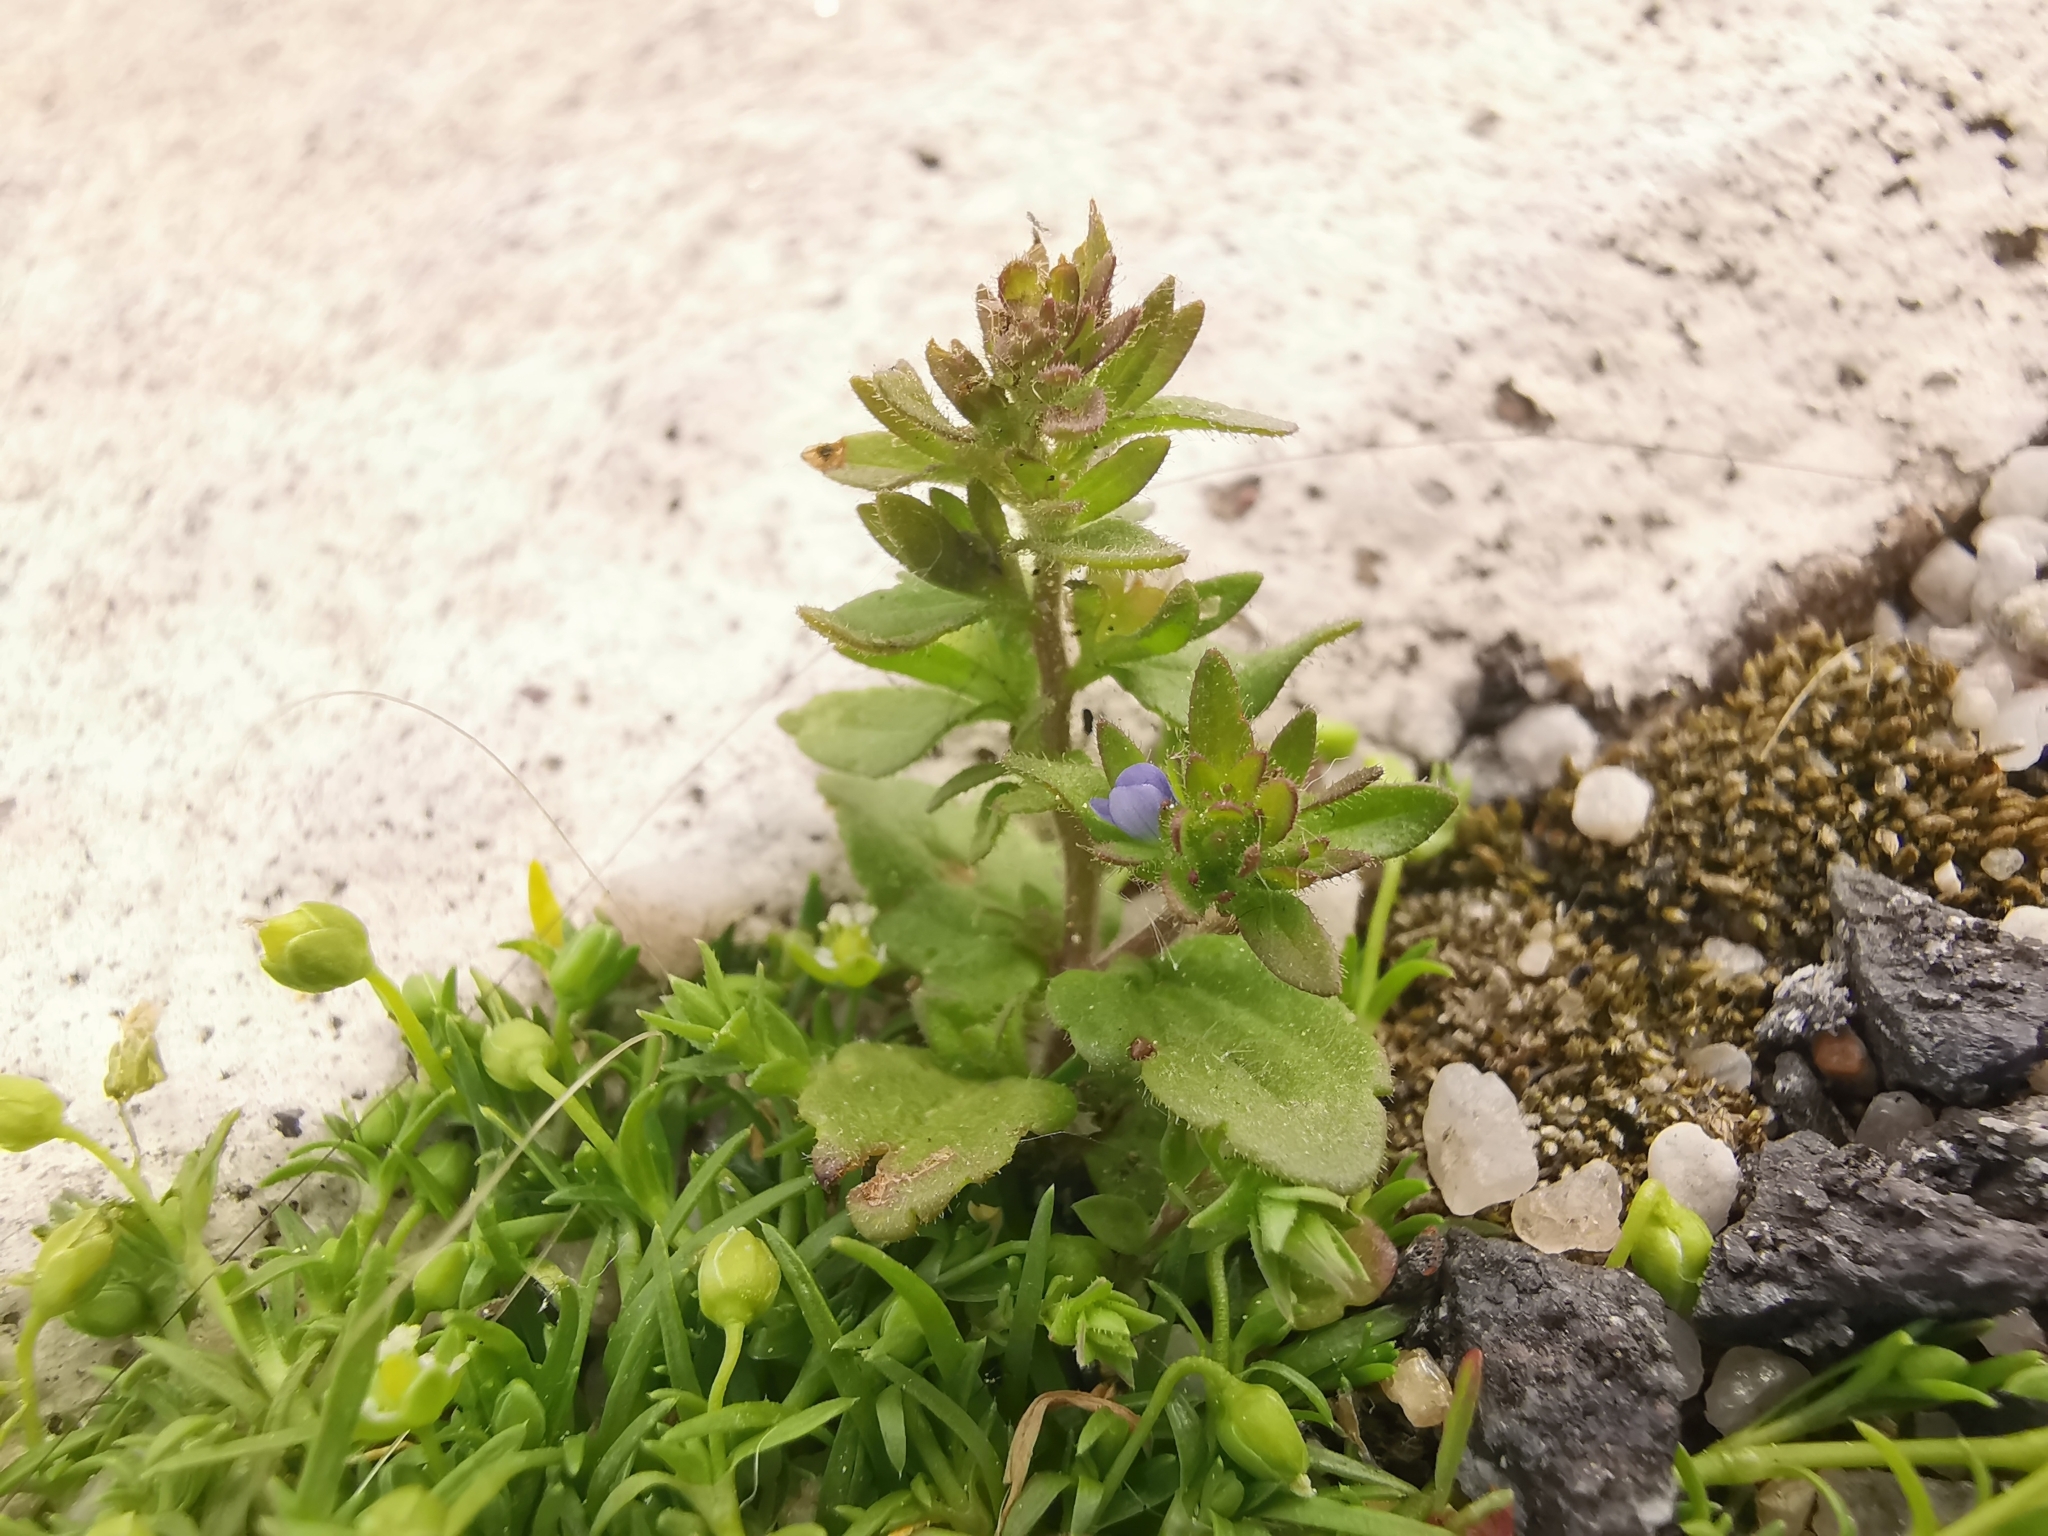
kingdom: Plantae
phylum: Tracheophyta
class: Magnoliopsida
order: Lamiales
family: Plantaginaceae
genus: Veronica
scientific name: Veronica arvensis
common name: Corn speedwell
